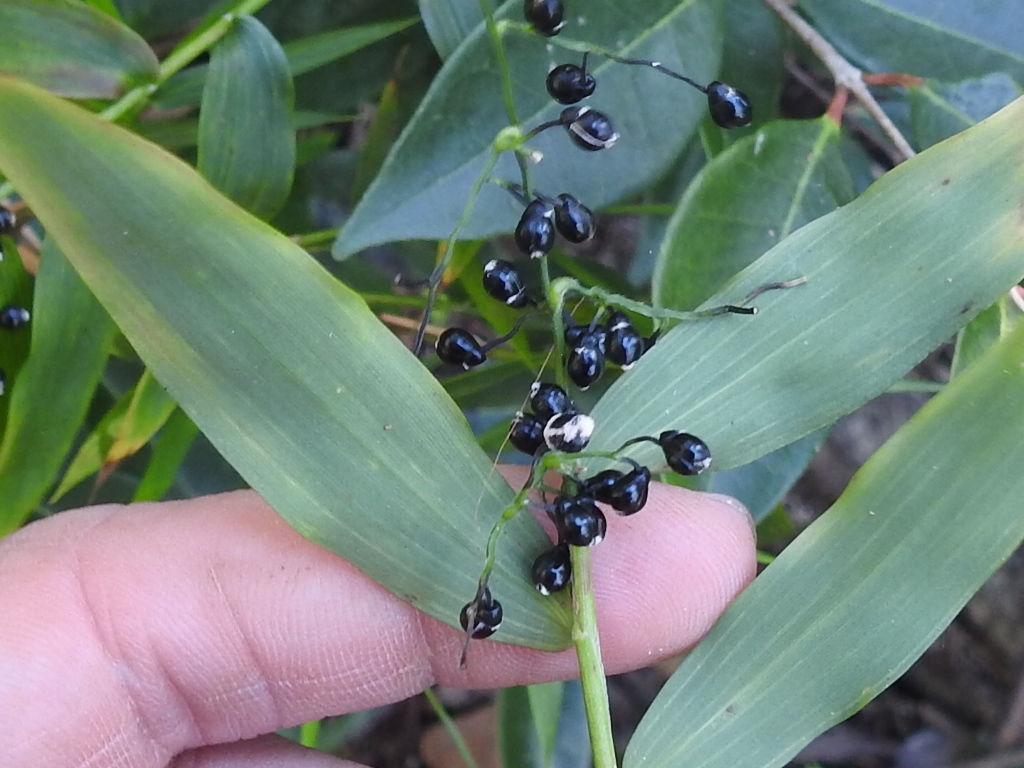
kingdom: Plantae
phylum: Tracheophyta
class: Liliopsida
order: Poales
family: Poaceae
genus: Lasiacis
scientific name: Lasiacis divaricata
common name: Smallcane
